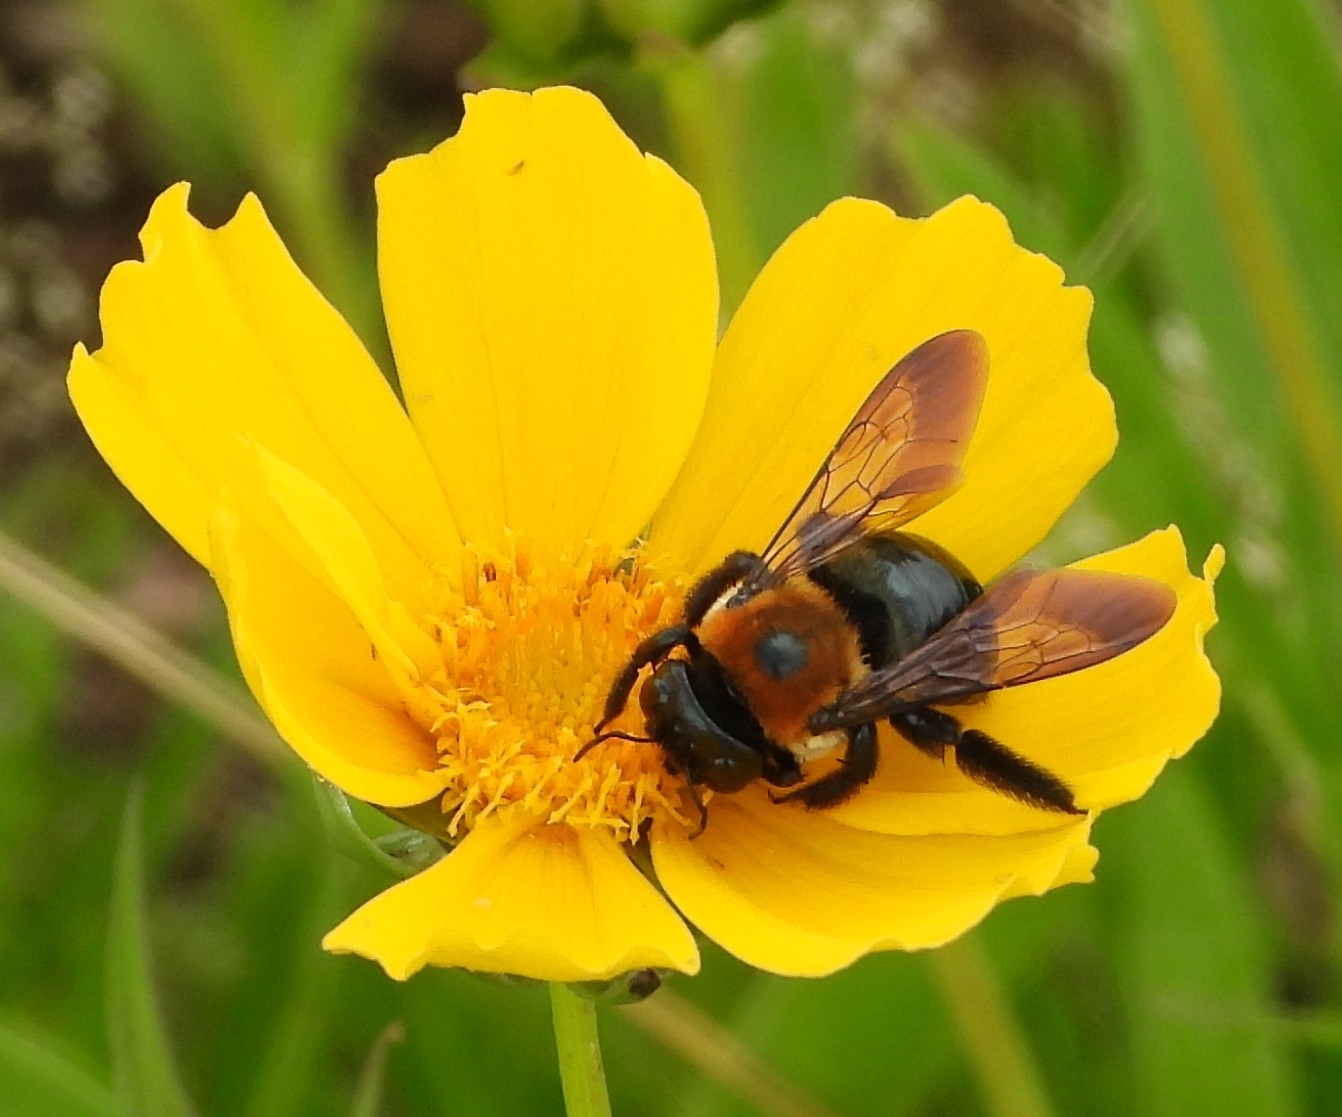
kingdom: Animalia
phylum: Arthropoda
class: Insecta
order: Hymenoptera
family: Apidae
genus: Xylocopa
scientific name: Xylocopa virginica
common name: Carpenter bee
